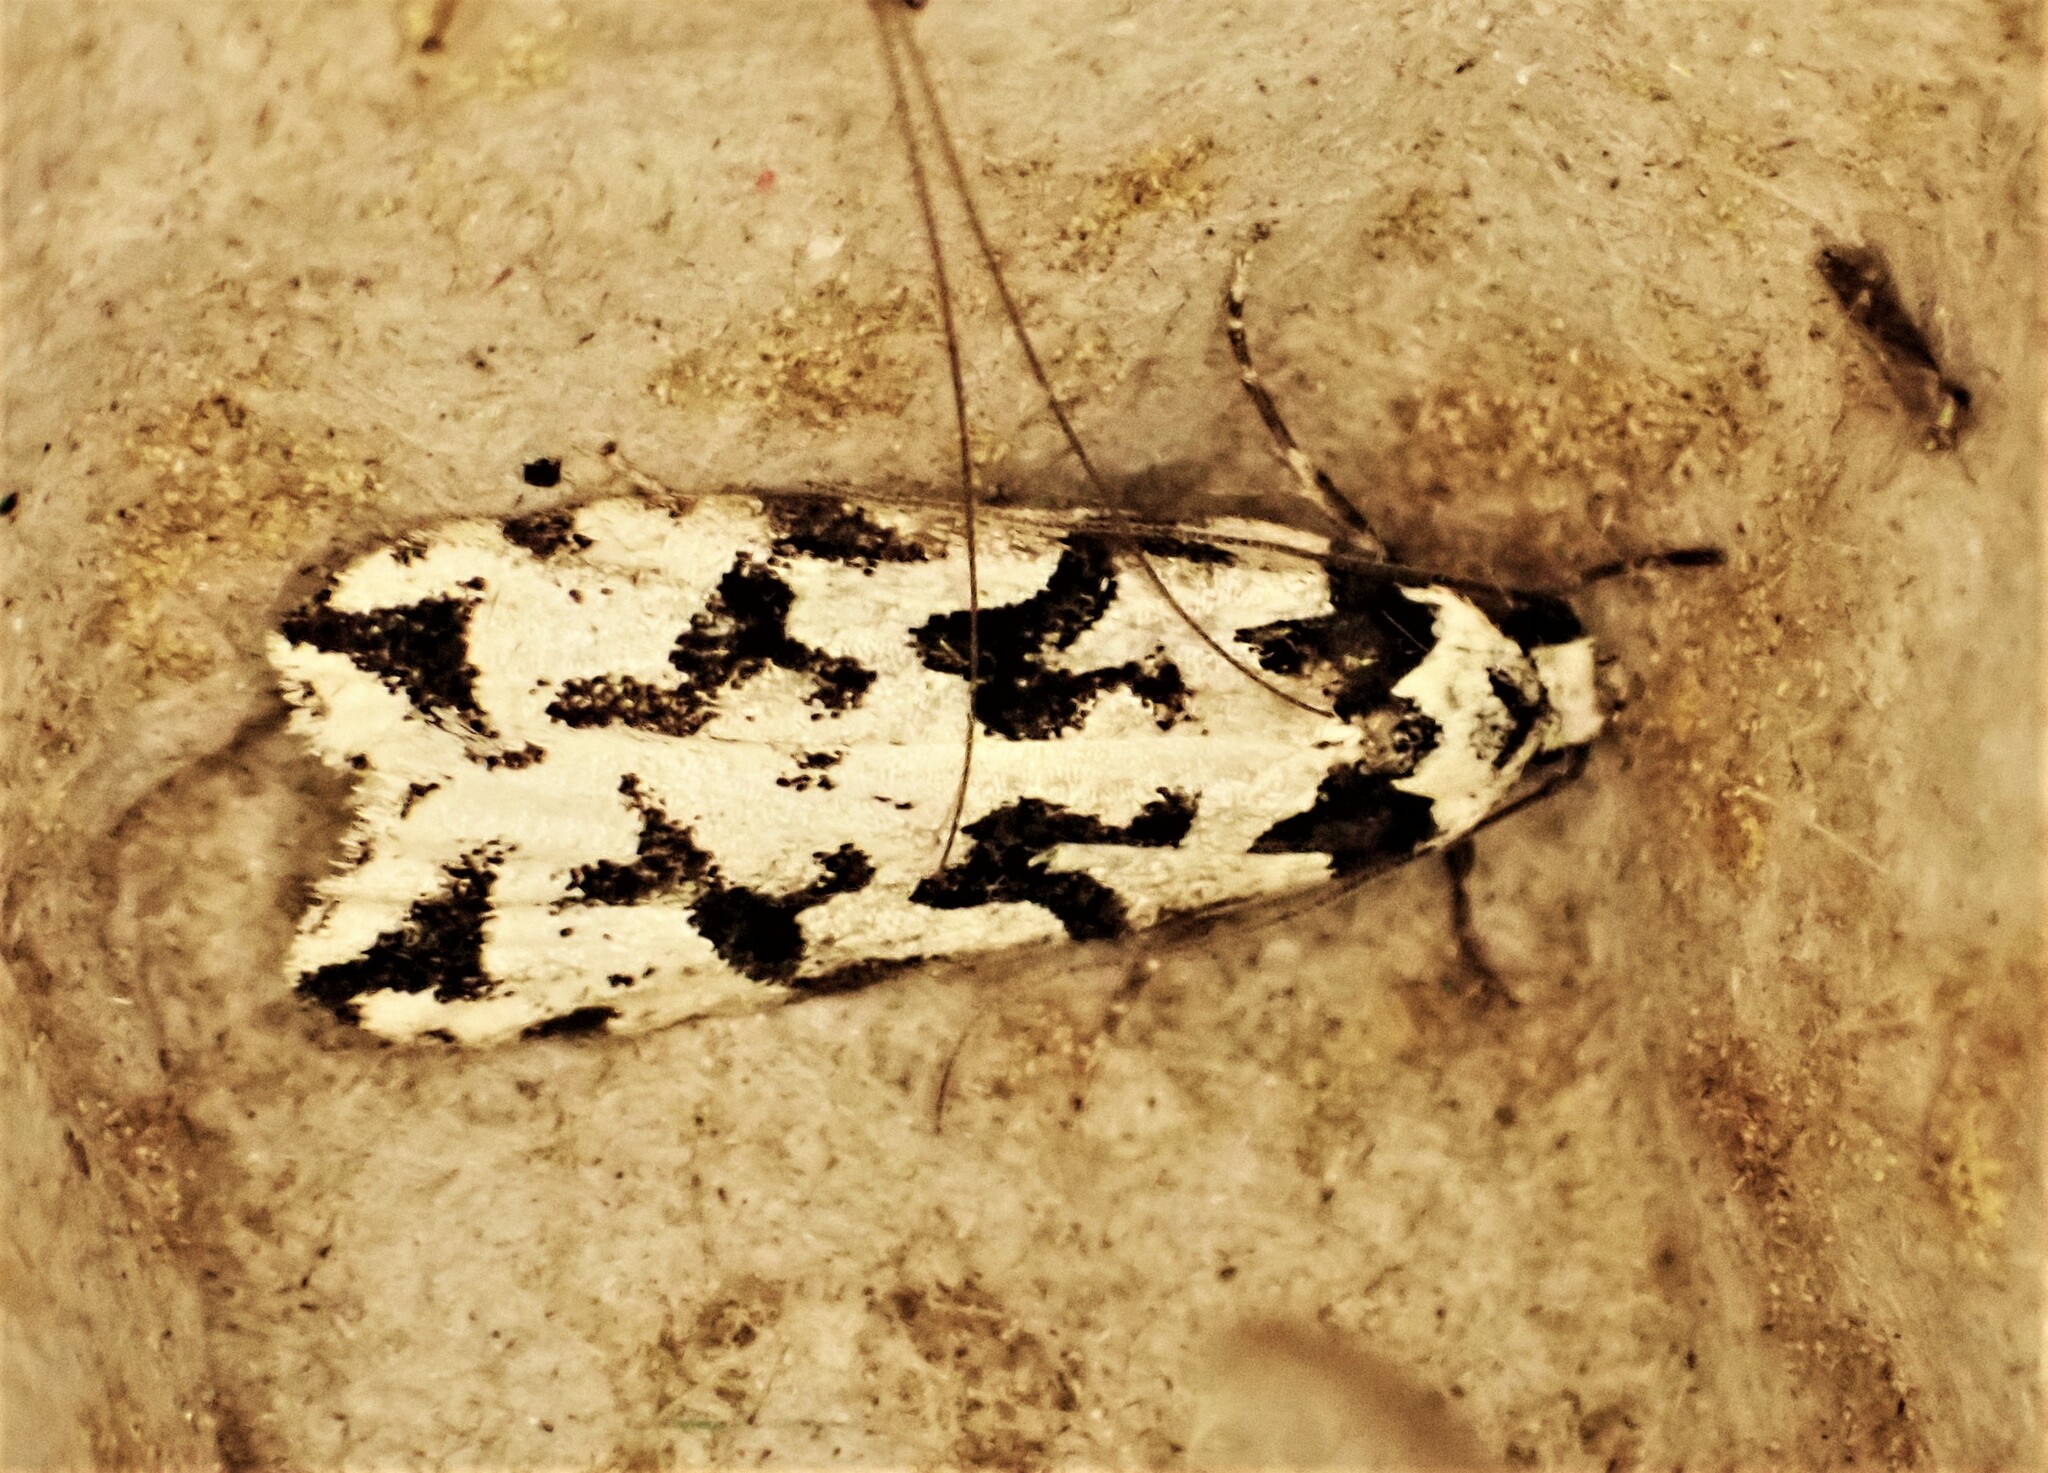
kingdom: Animalia
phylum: Arthropoda
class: Insecta
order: Lepidoptera
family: Oecophoridae
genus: Izatha
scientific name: Izatha acmonias
